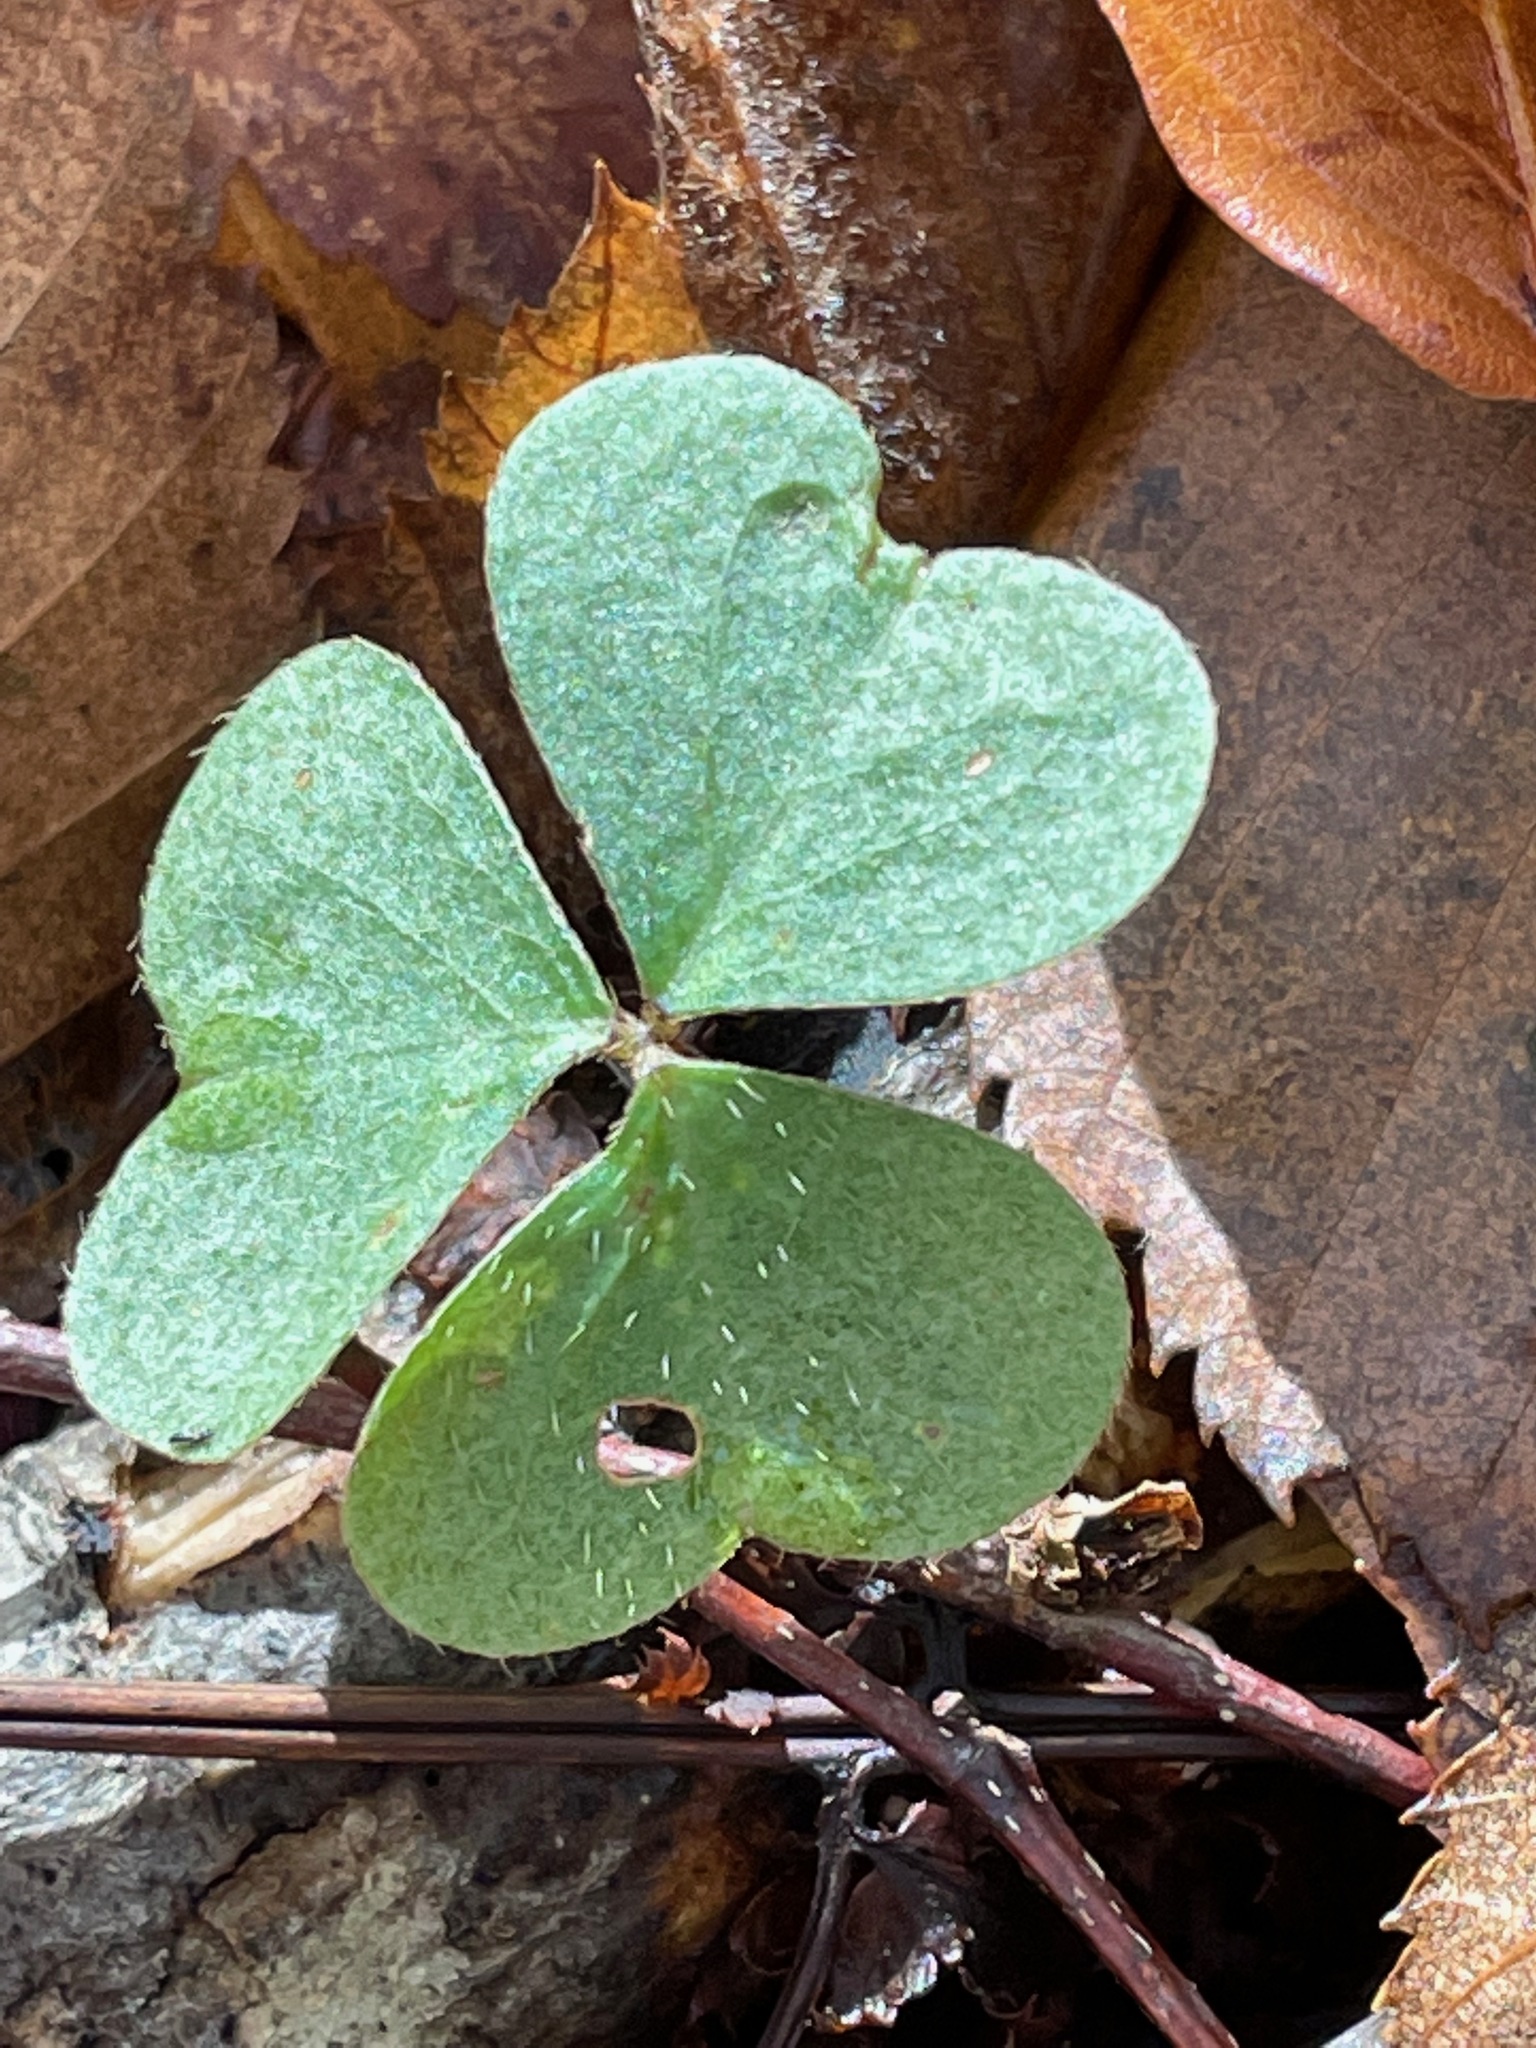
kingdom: Plantae
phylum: Tracheophyta
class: Magnoliopsida
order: Oxalidales
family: Oxalidaceae
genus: Oxalis
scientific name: Oxalis montana
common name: American wood-sorrel
